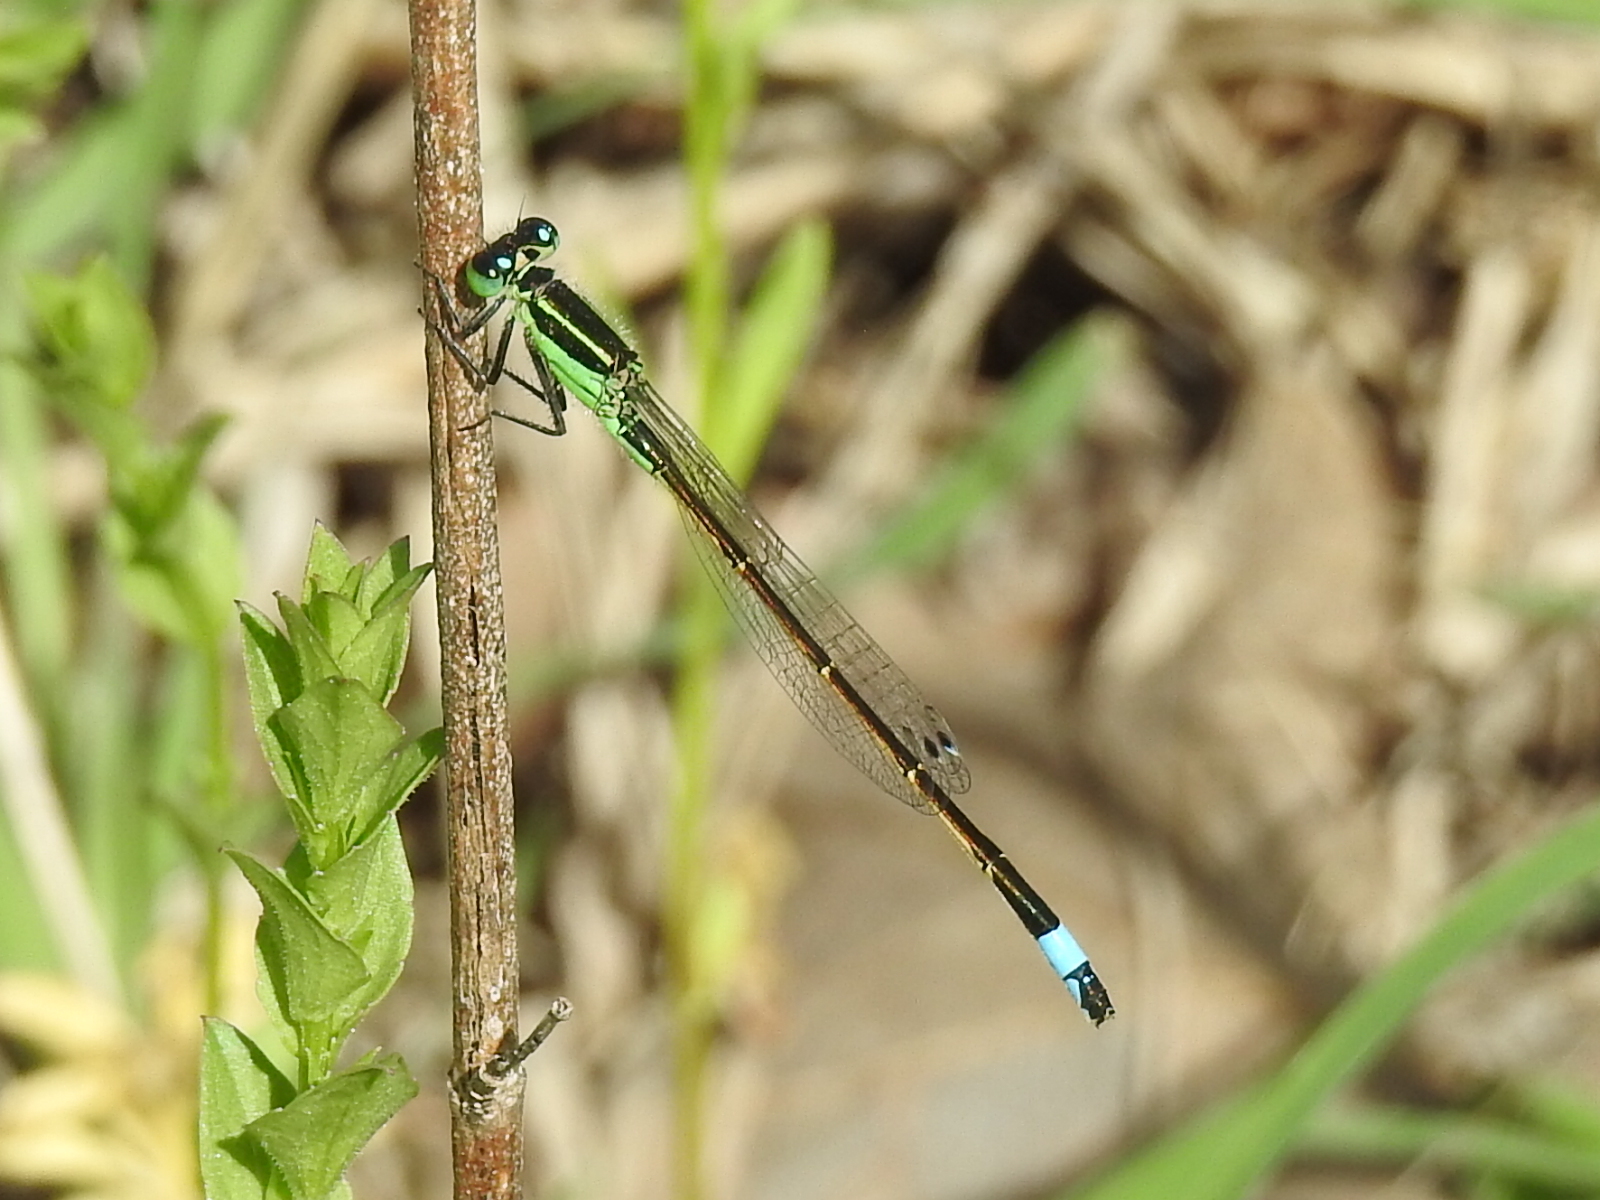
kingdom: Animalia
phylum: Arthropoda
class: Insecta
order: Odonata
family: Coenagrionidae
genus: Ischnura
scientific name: Ischnura ramburii
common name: Rambur's forktail
